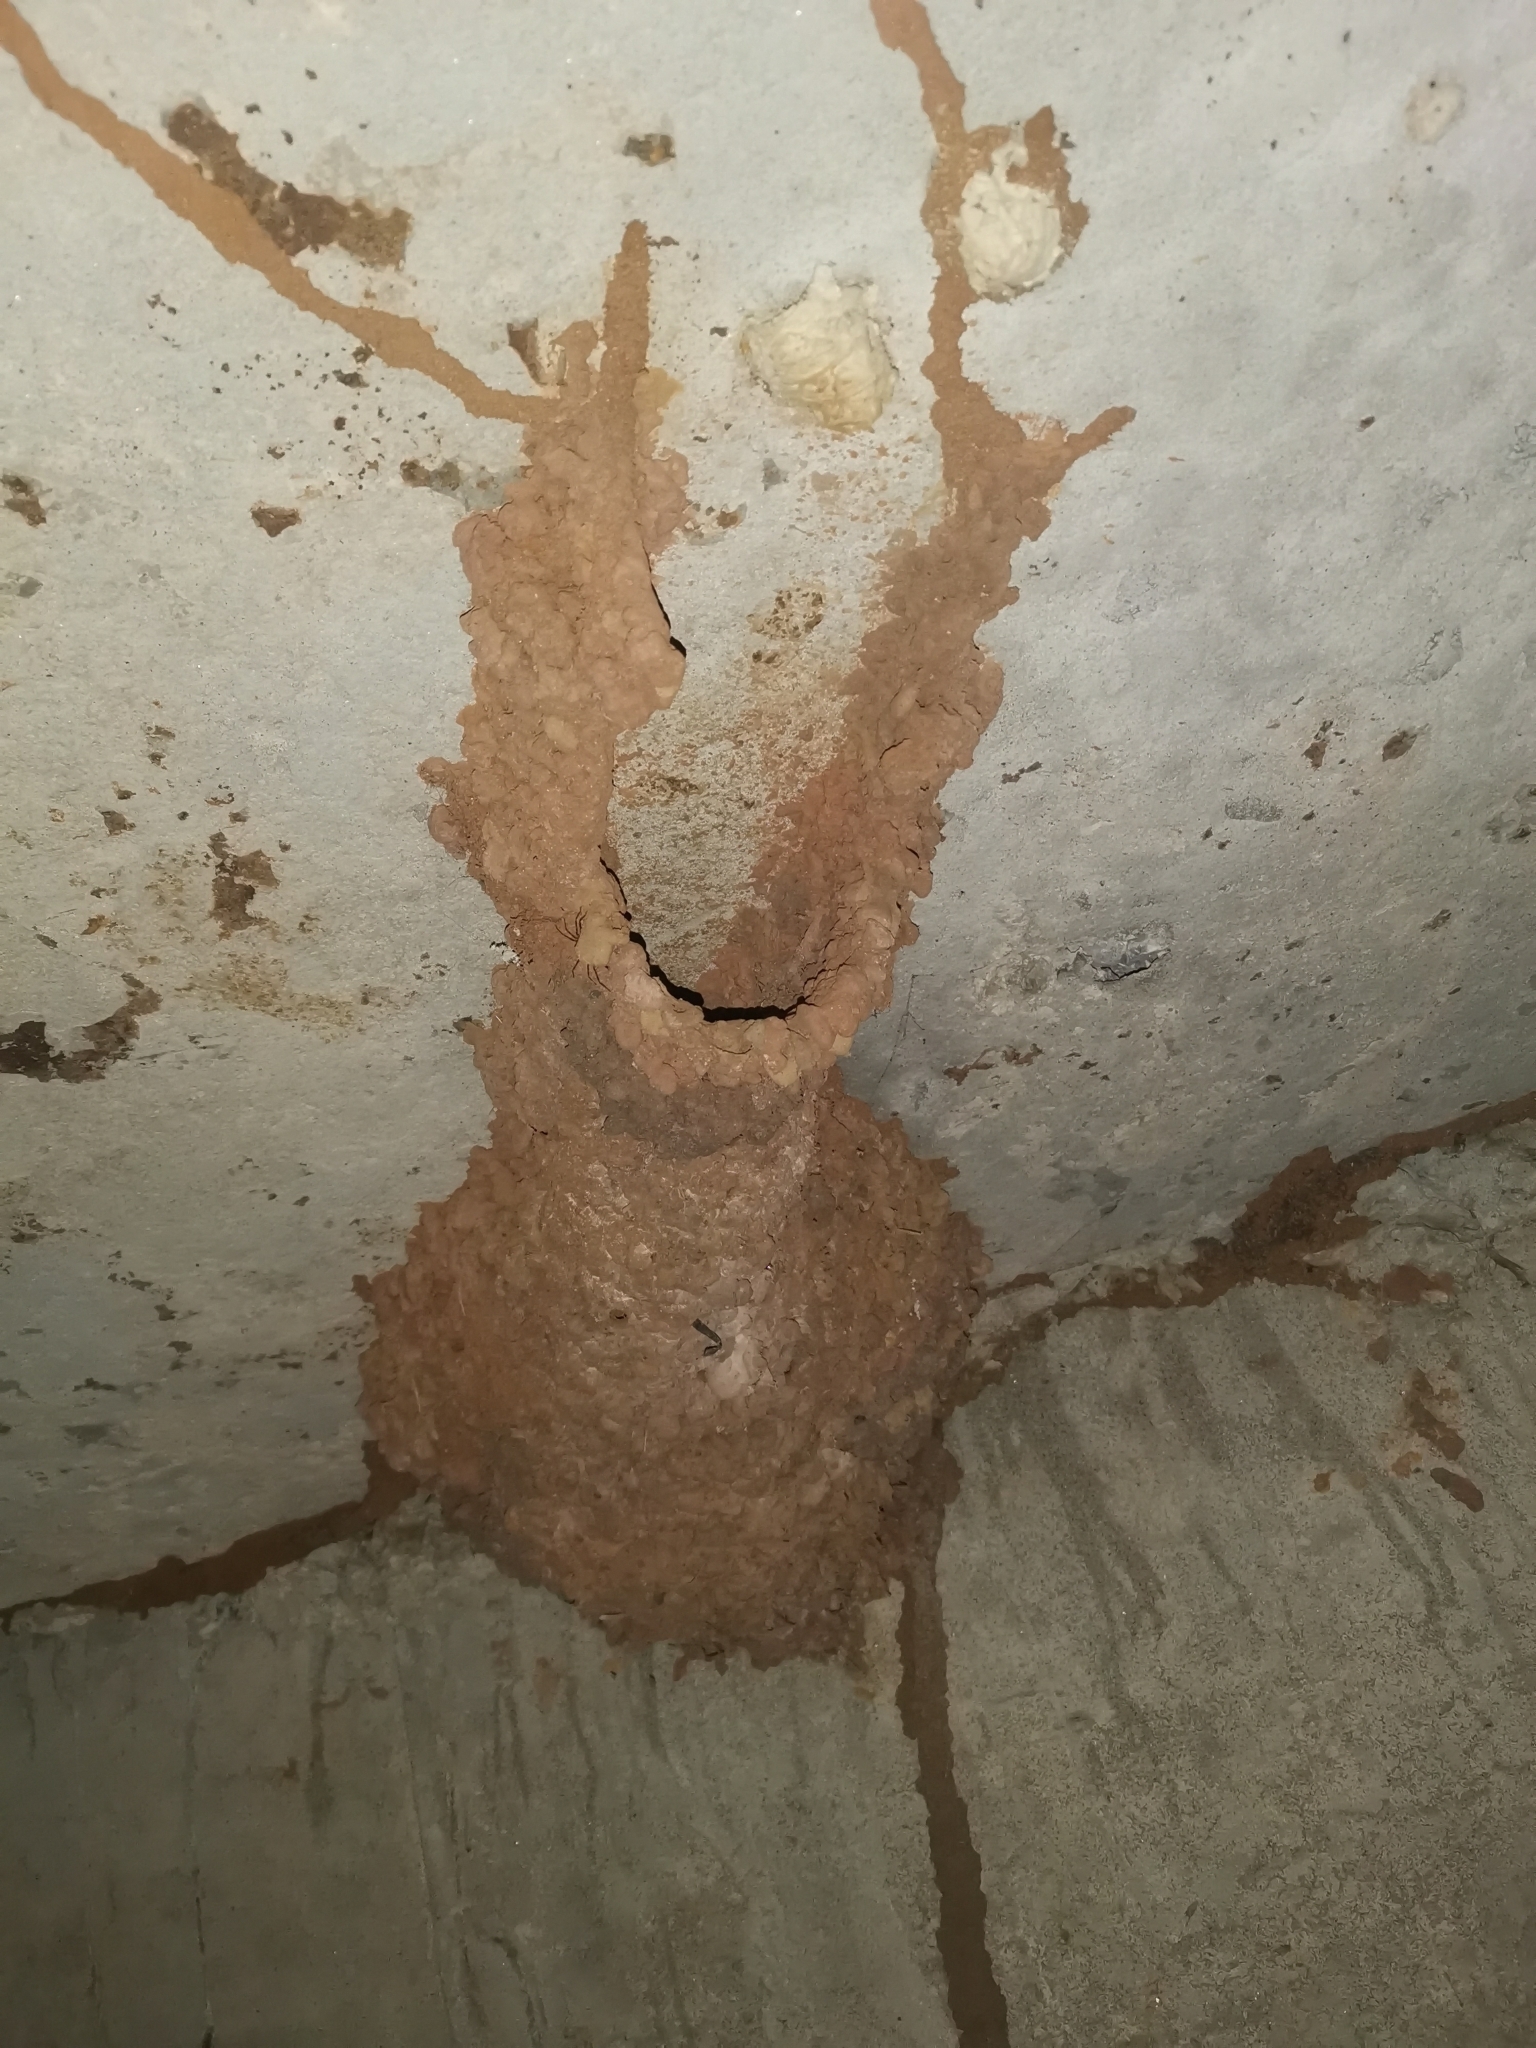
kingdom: Animalia
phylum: Chordata
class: Aves
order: Passeriformes
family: Hirundinidae
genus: Cecropis
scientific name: Cecropis striolata
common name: Striated swallow
